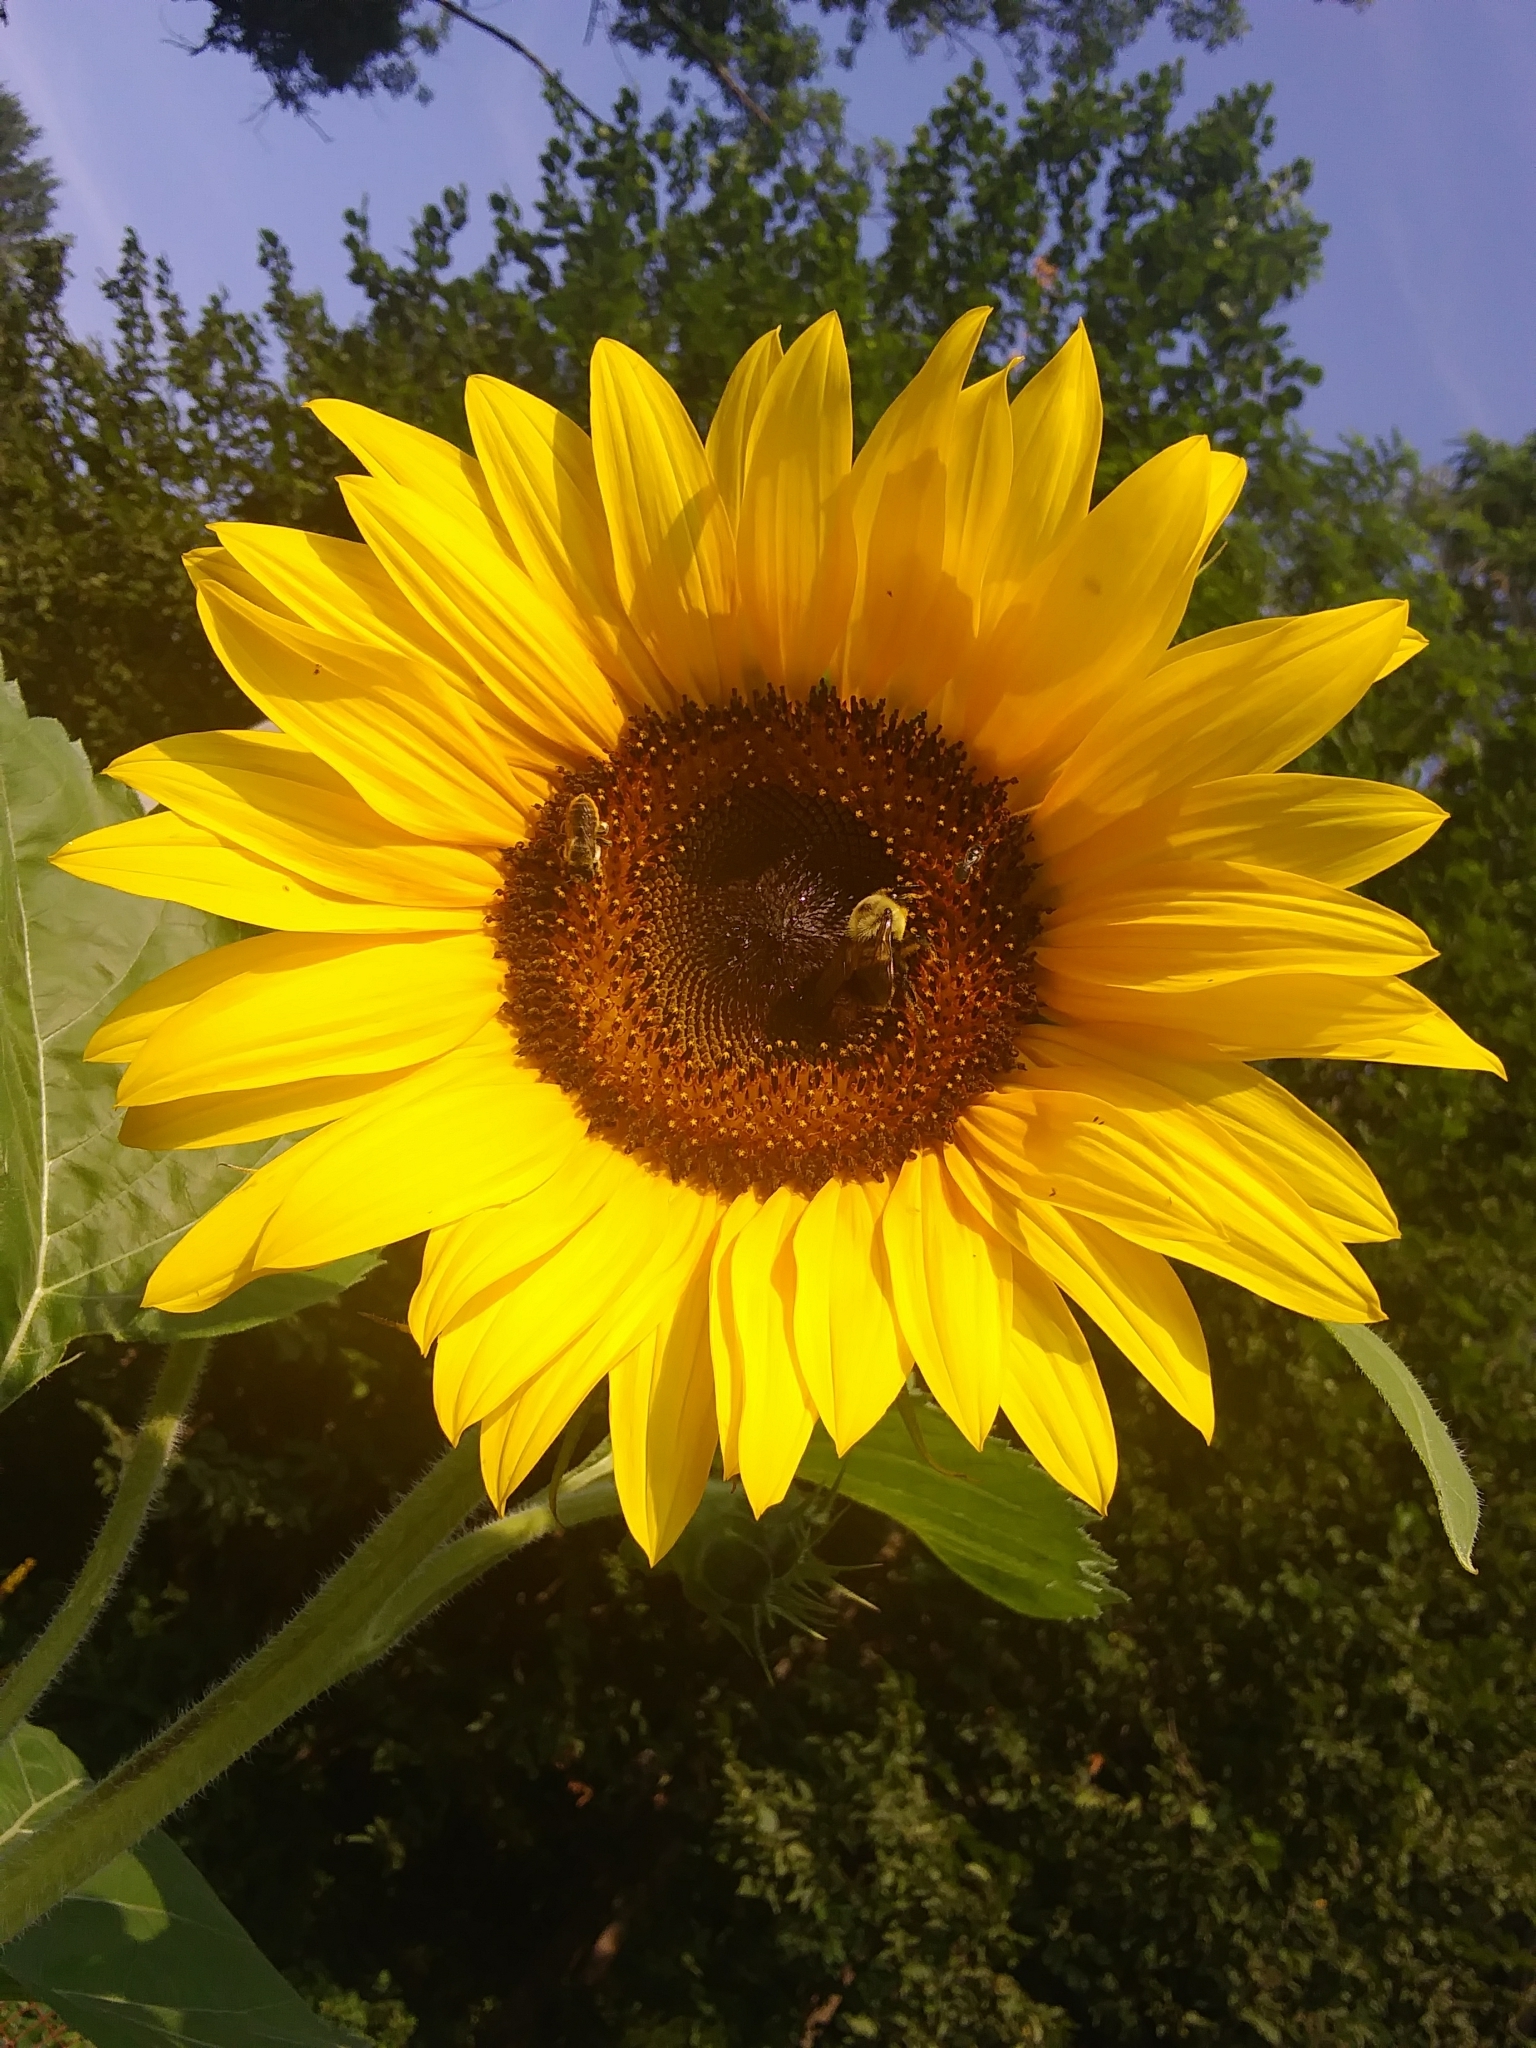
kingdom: Animalia
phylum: Arthropoda
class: Insecta
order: Hymenoptera
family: Megachilidae
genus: Megachile
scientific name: Megachile
